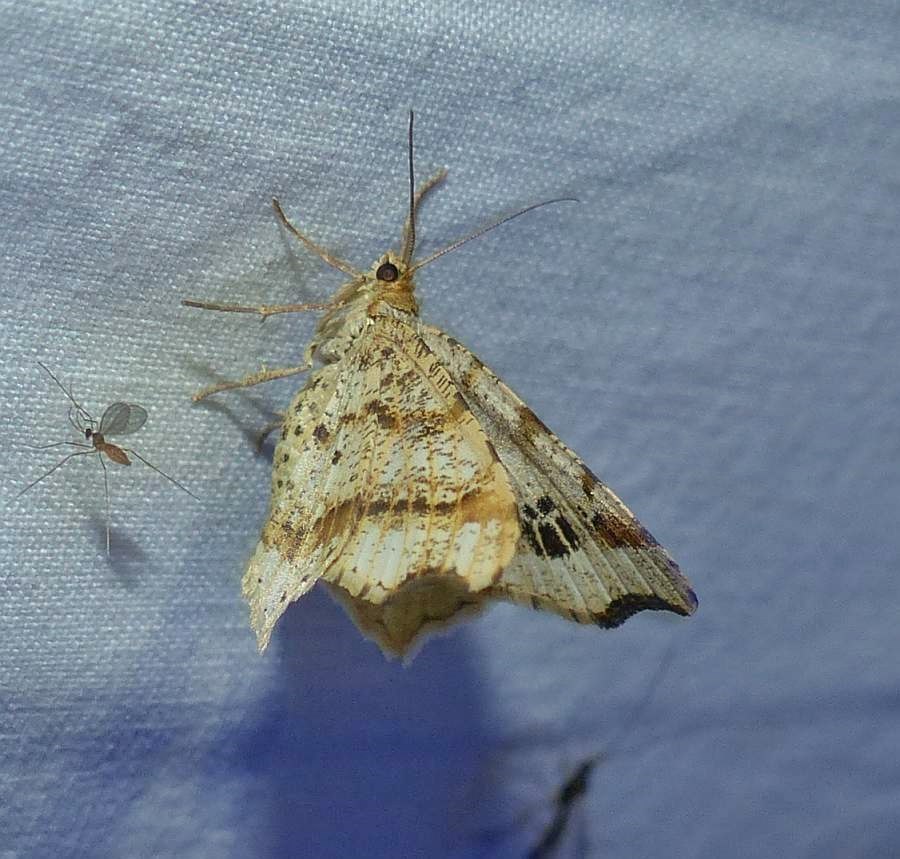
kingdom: Animalia
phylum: Arthropoda
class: Insecta
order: Lepidoptera
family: Geometridae
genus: Macaria
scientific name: Macaria aemulataria
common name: Common angle
